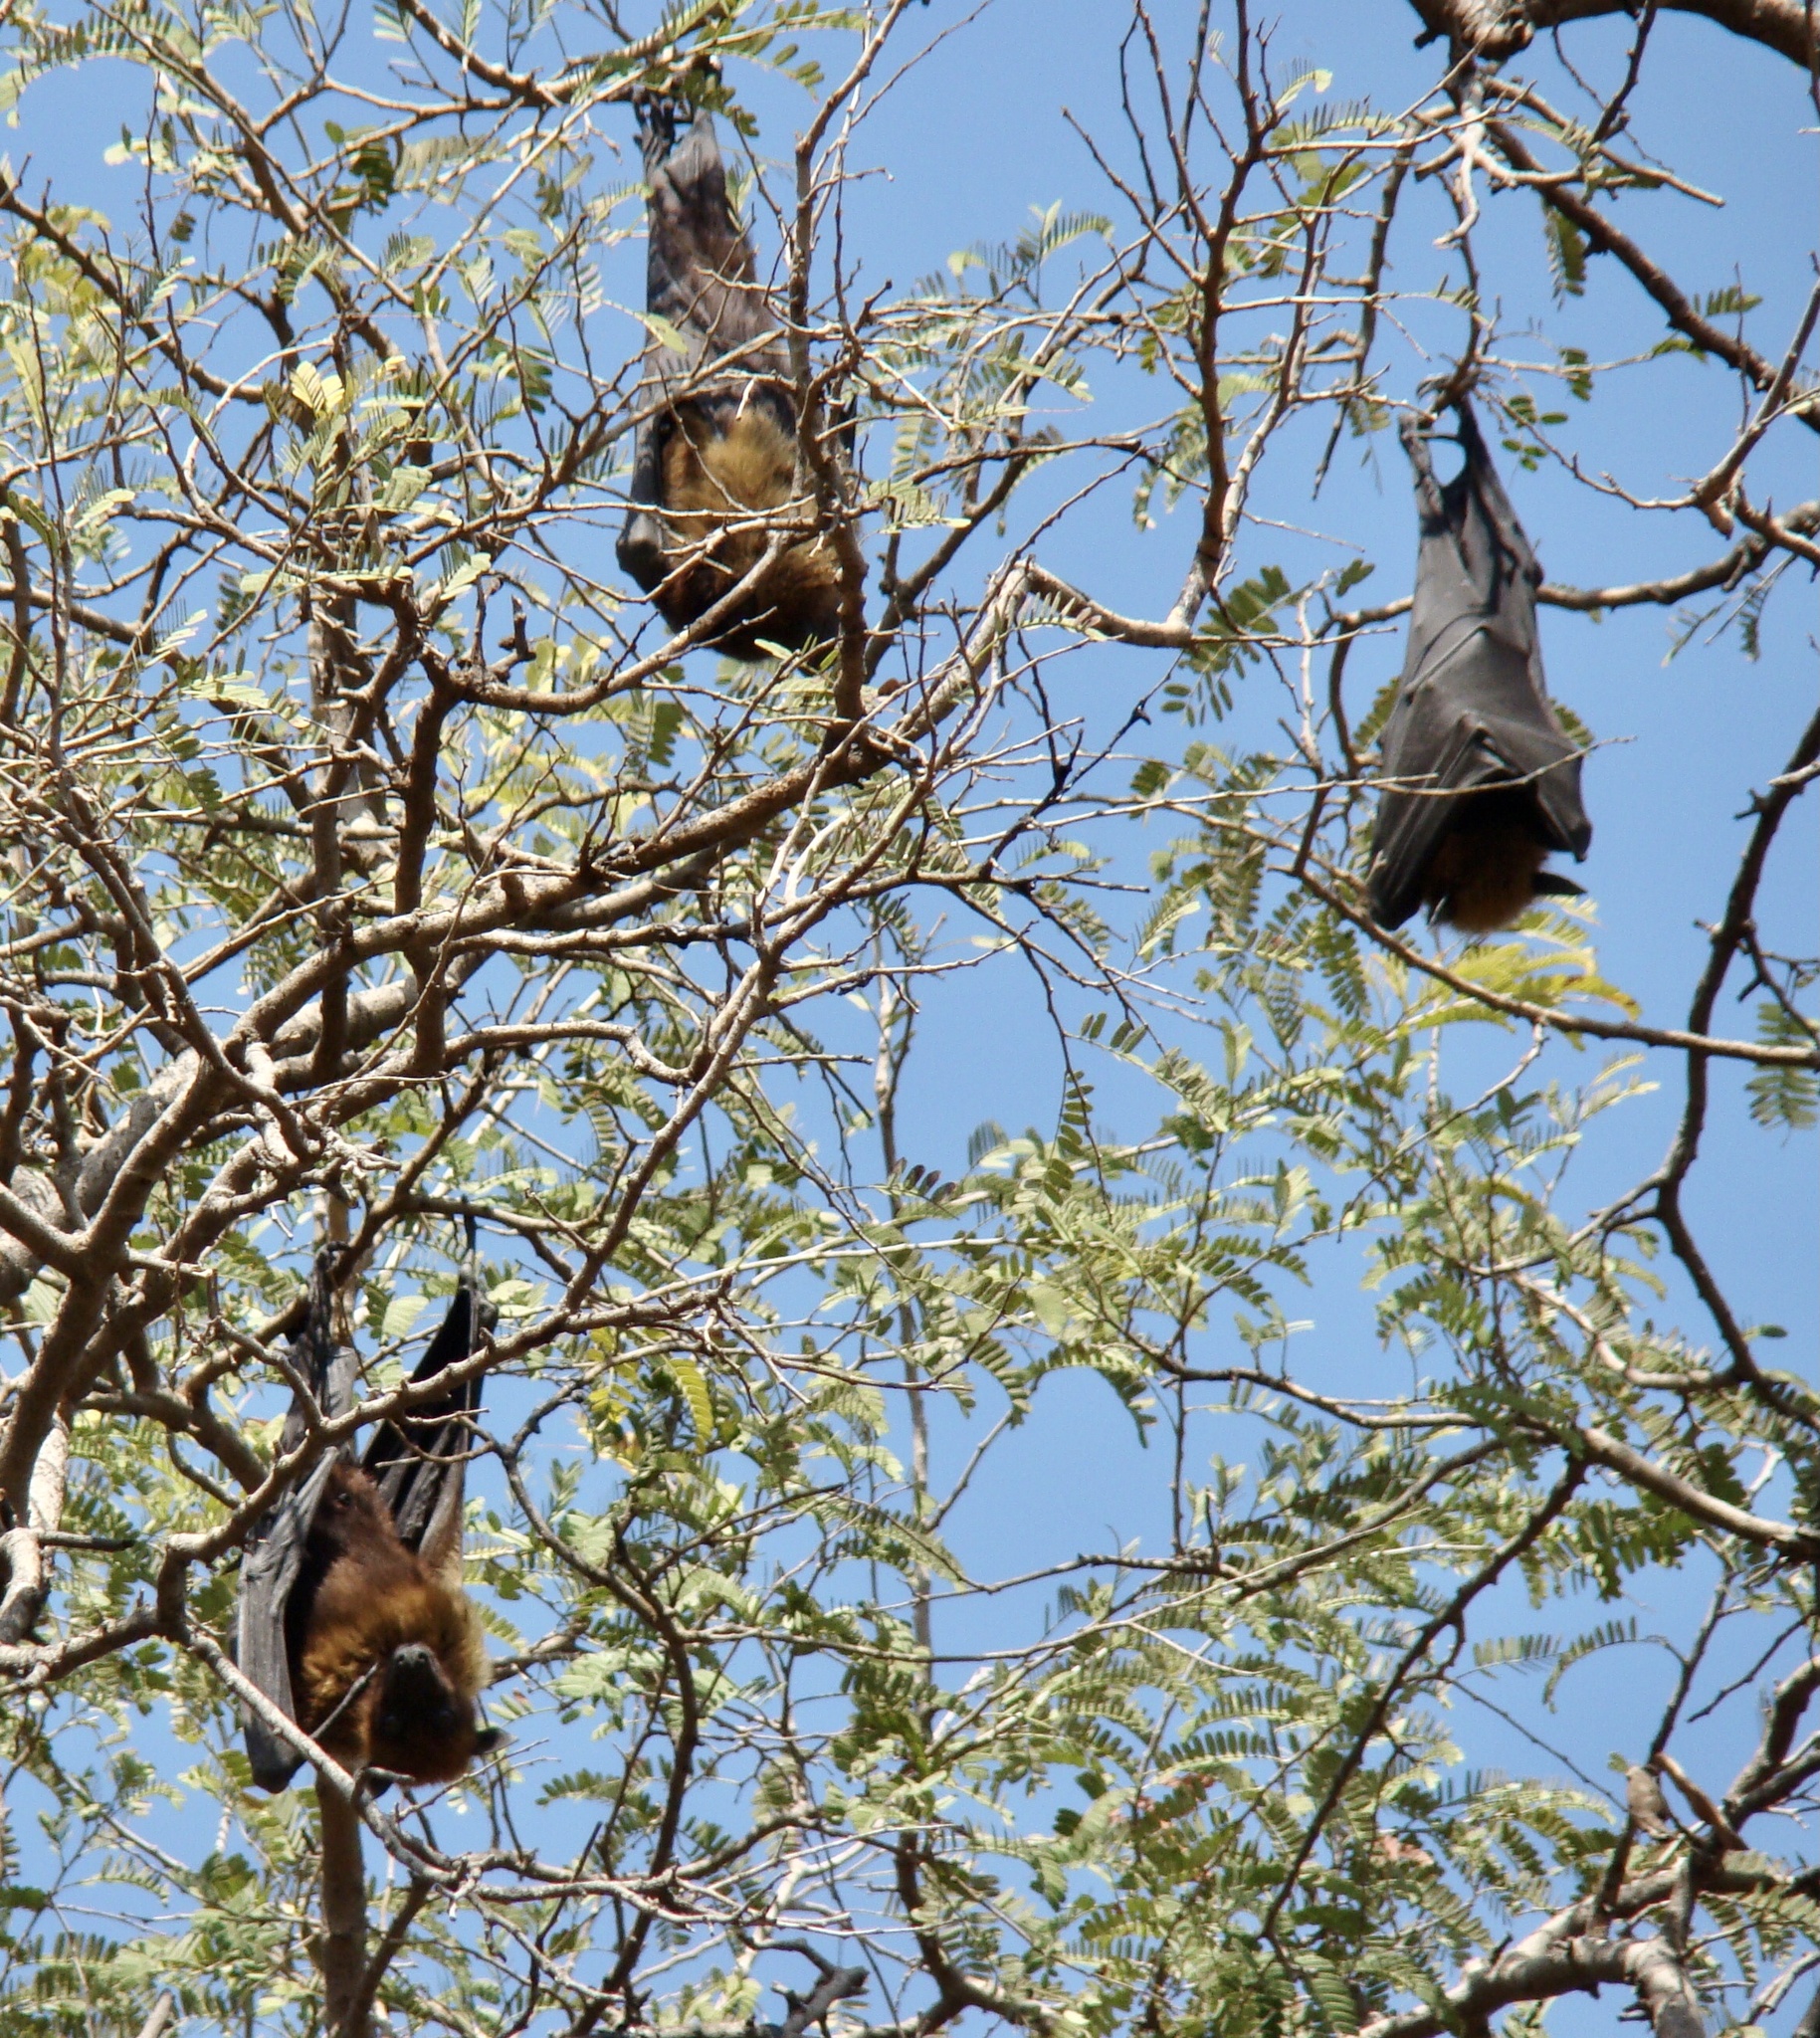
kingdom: Animalia
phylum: Chordata
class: Mammalia
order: Chiroptera
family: Pteropodidae
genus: Pteropus
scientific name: Pteropus vampyrus
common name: Large flying fox
